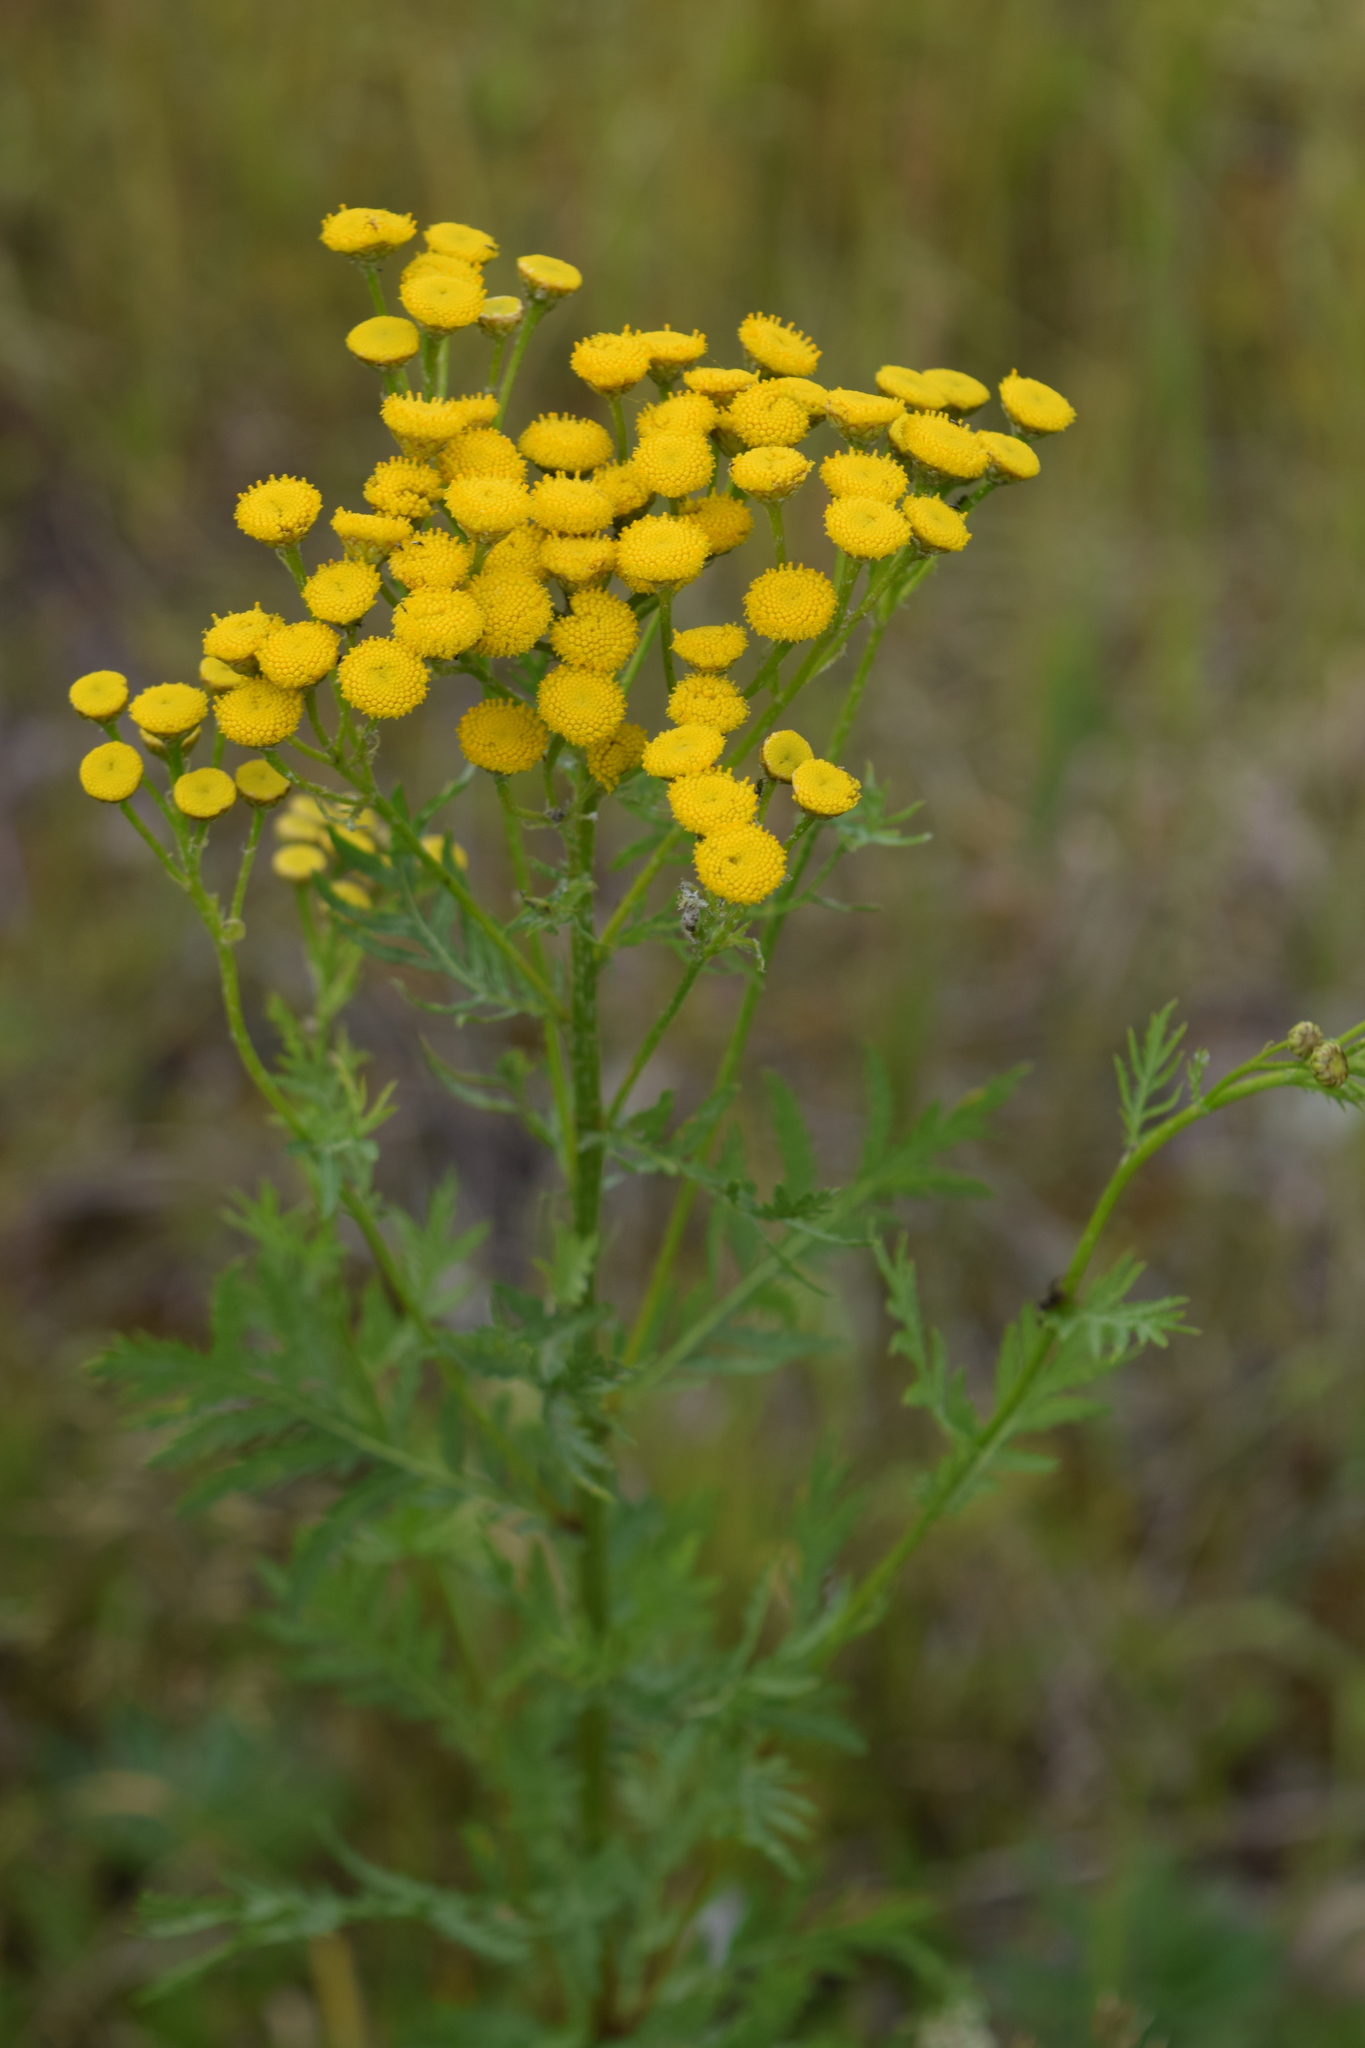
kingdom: Plantae
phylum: Tracheophyta
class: Magnoliopsida
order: Asterales
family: Asteraceae
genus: Tanacetum
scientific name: Tanacetum vulgare
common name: Common tansy
